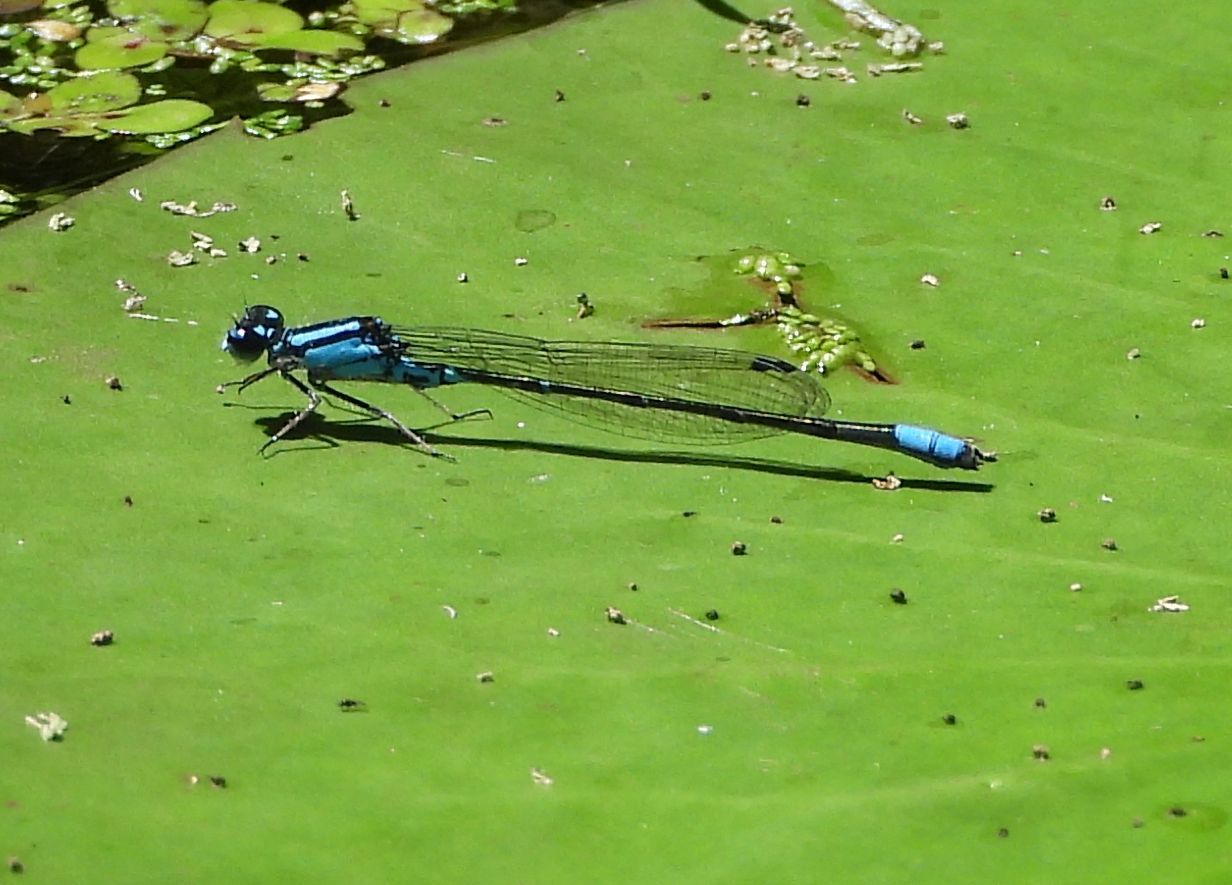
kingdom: Animalia
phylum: Arthropoda
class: Insecta
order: Odonata
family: Coenagrionidae
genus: Enallagma
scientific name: Enallagma geminatum
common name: Skimming bluet
